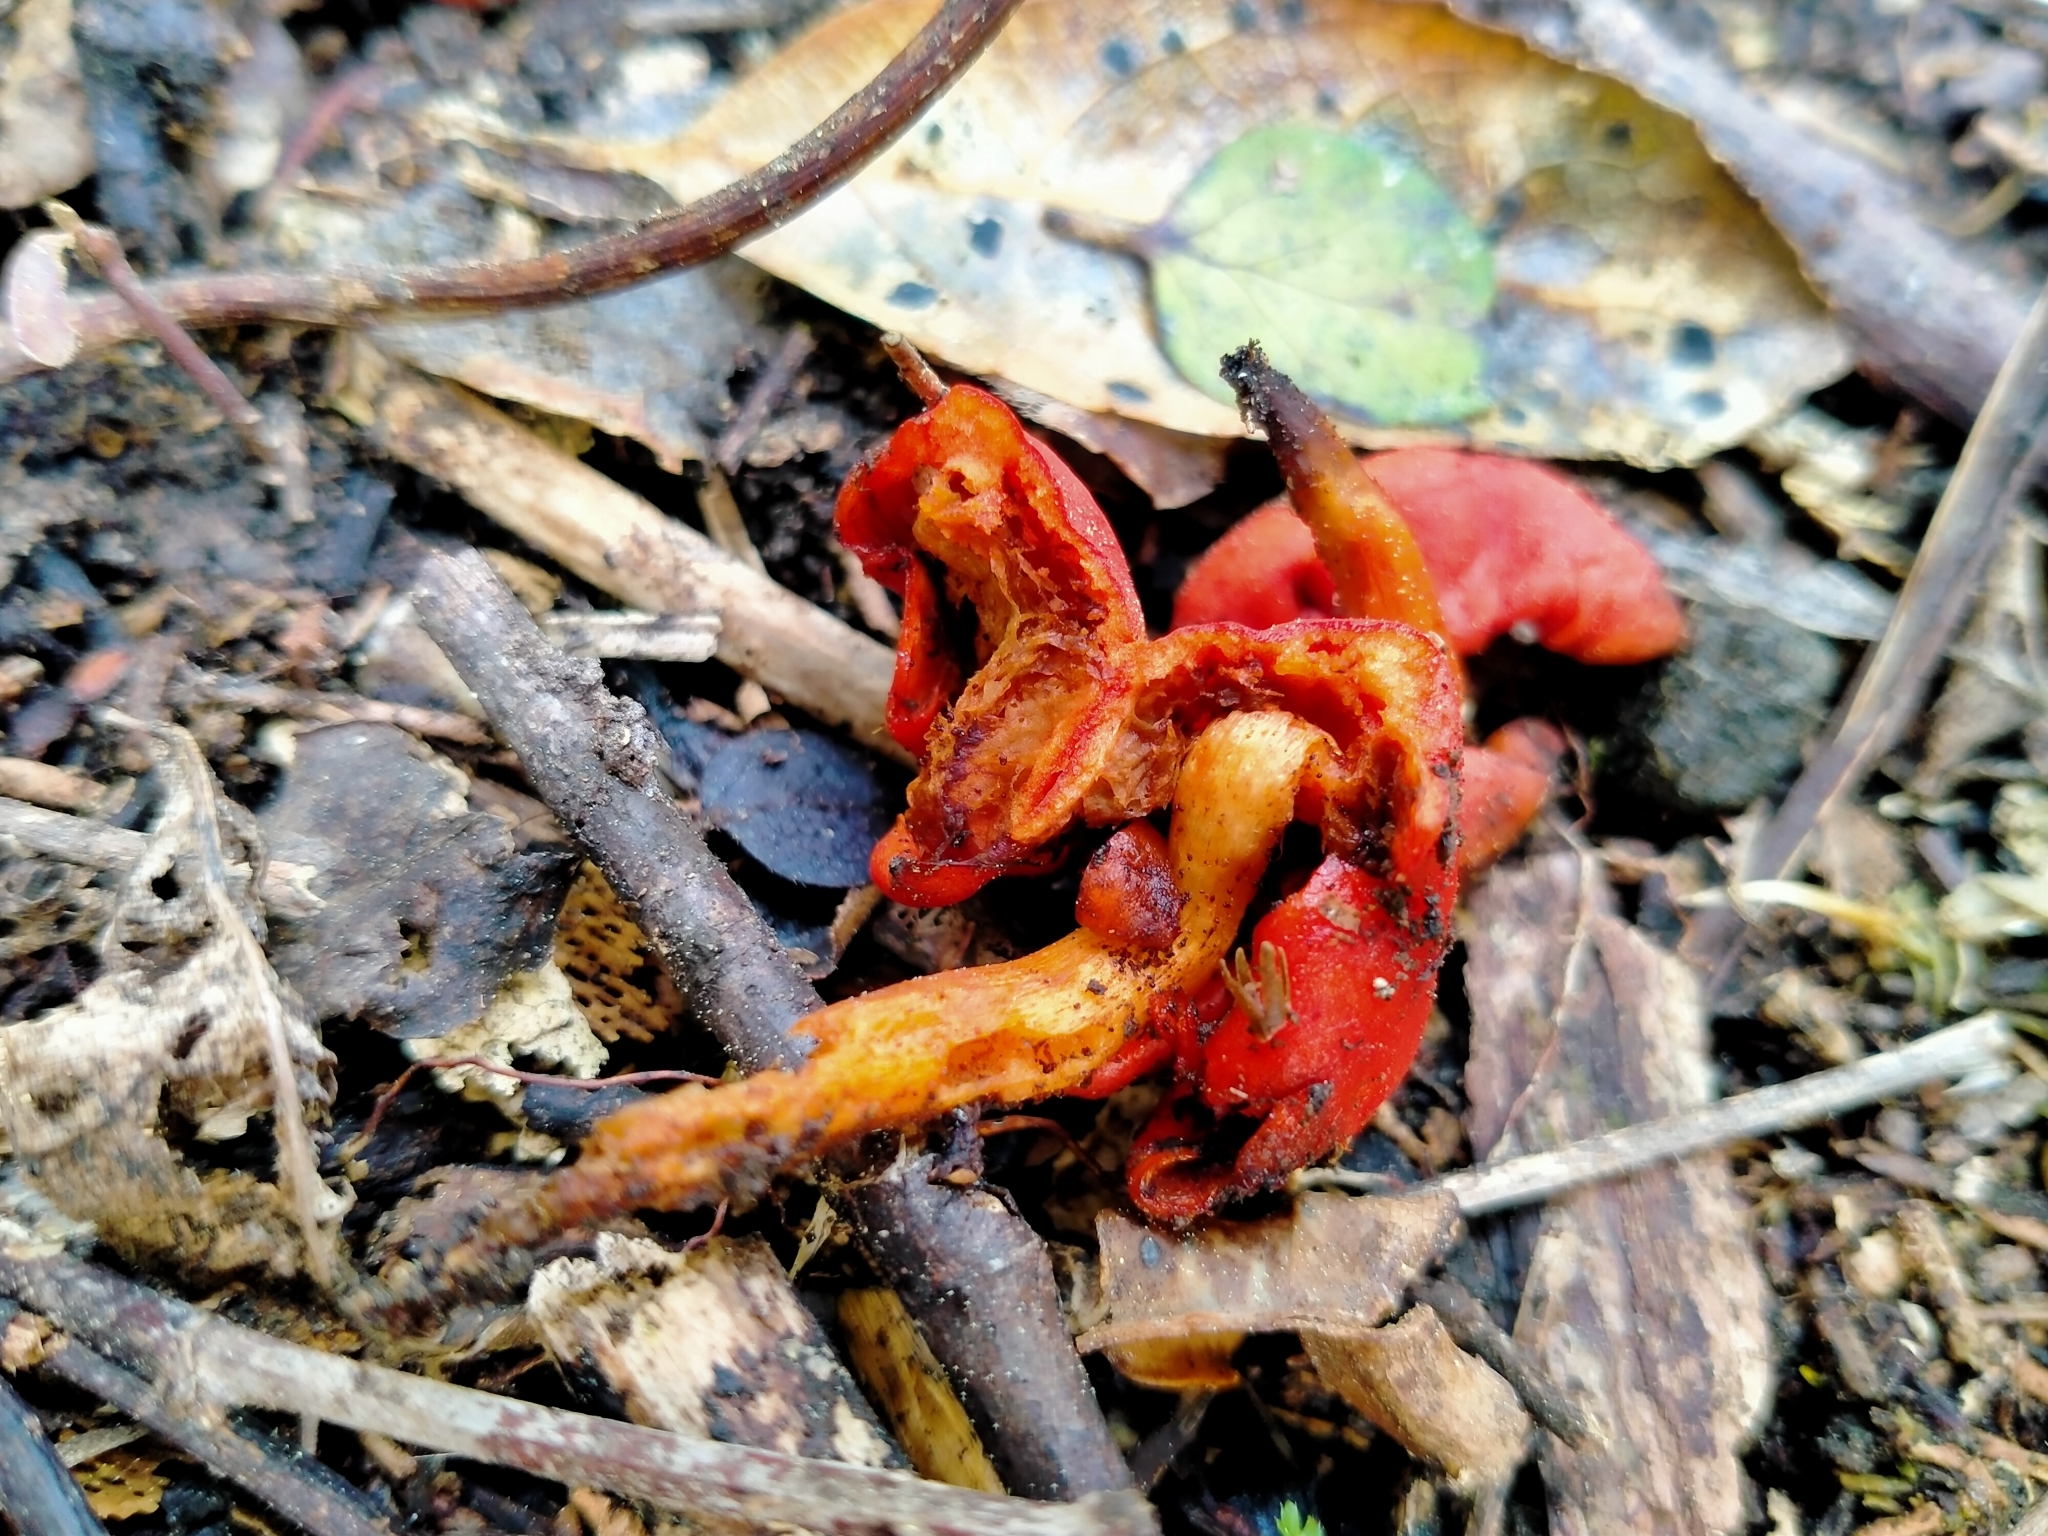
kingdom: Fungi
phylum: Basidiomycota
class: Agaricomycetes
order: Agaricales
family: Strophariaceae
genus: Leratiomyces
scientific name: Leratiomyces erythrocephalus
